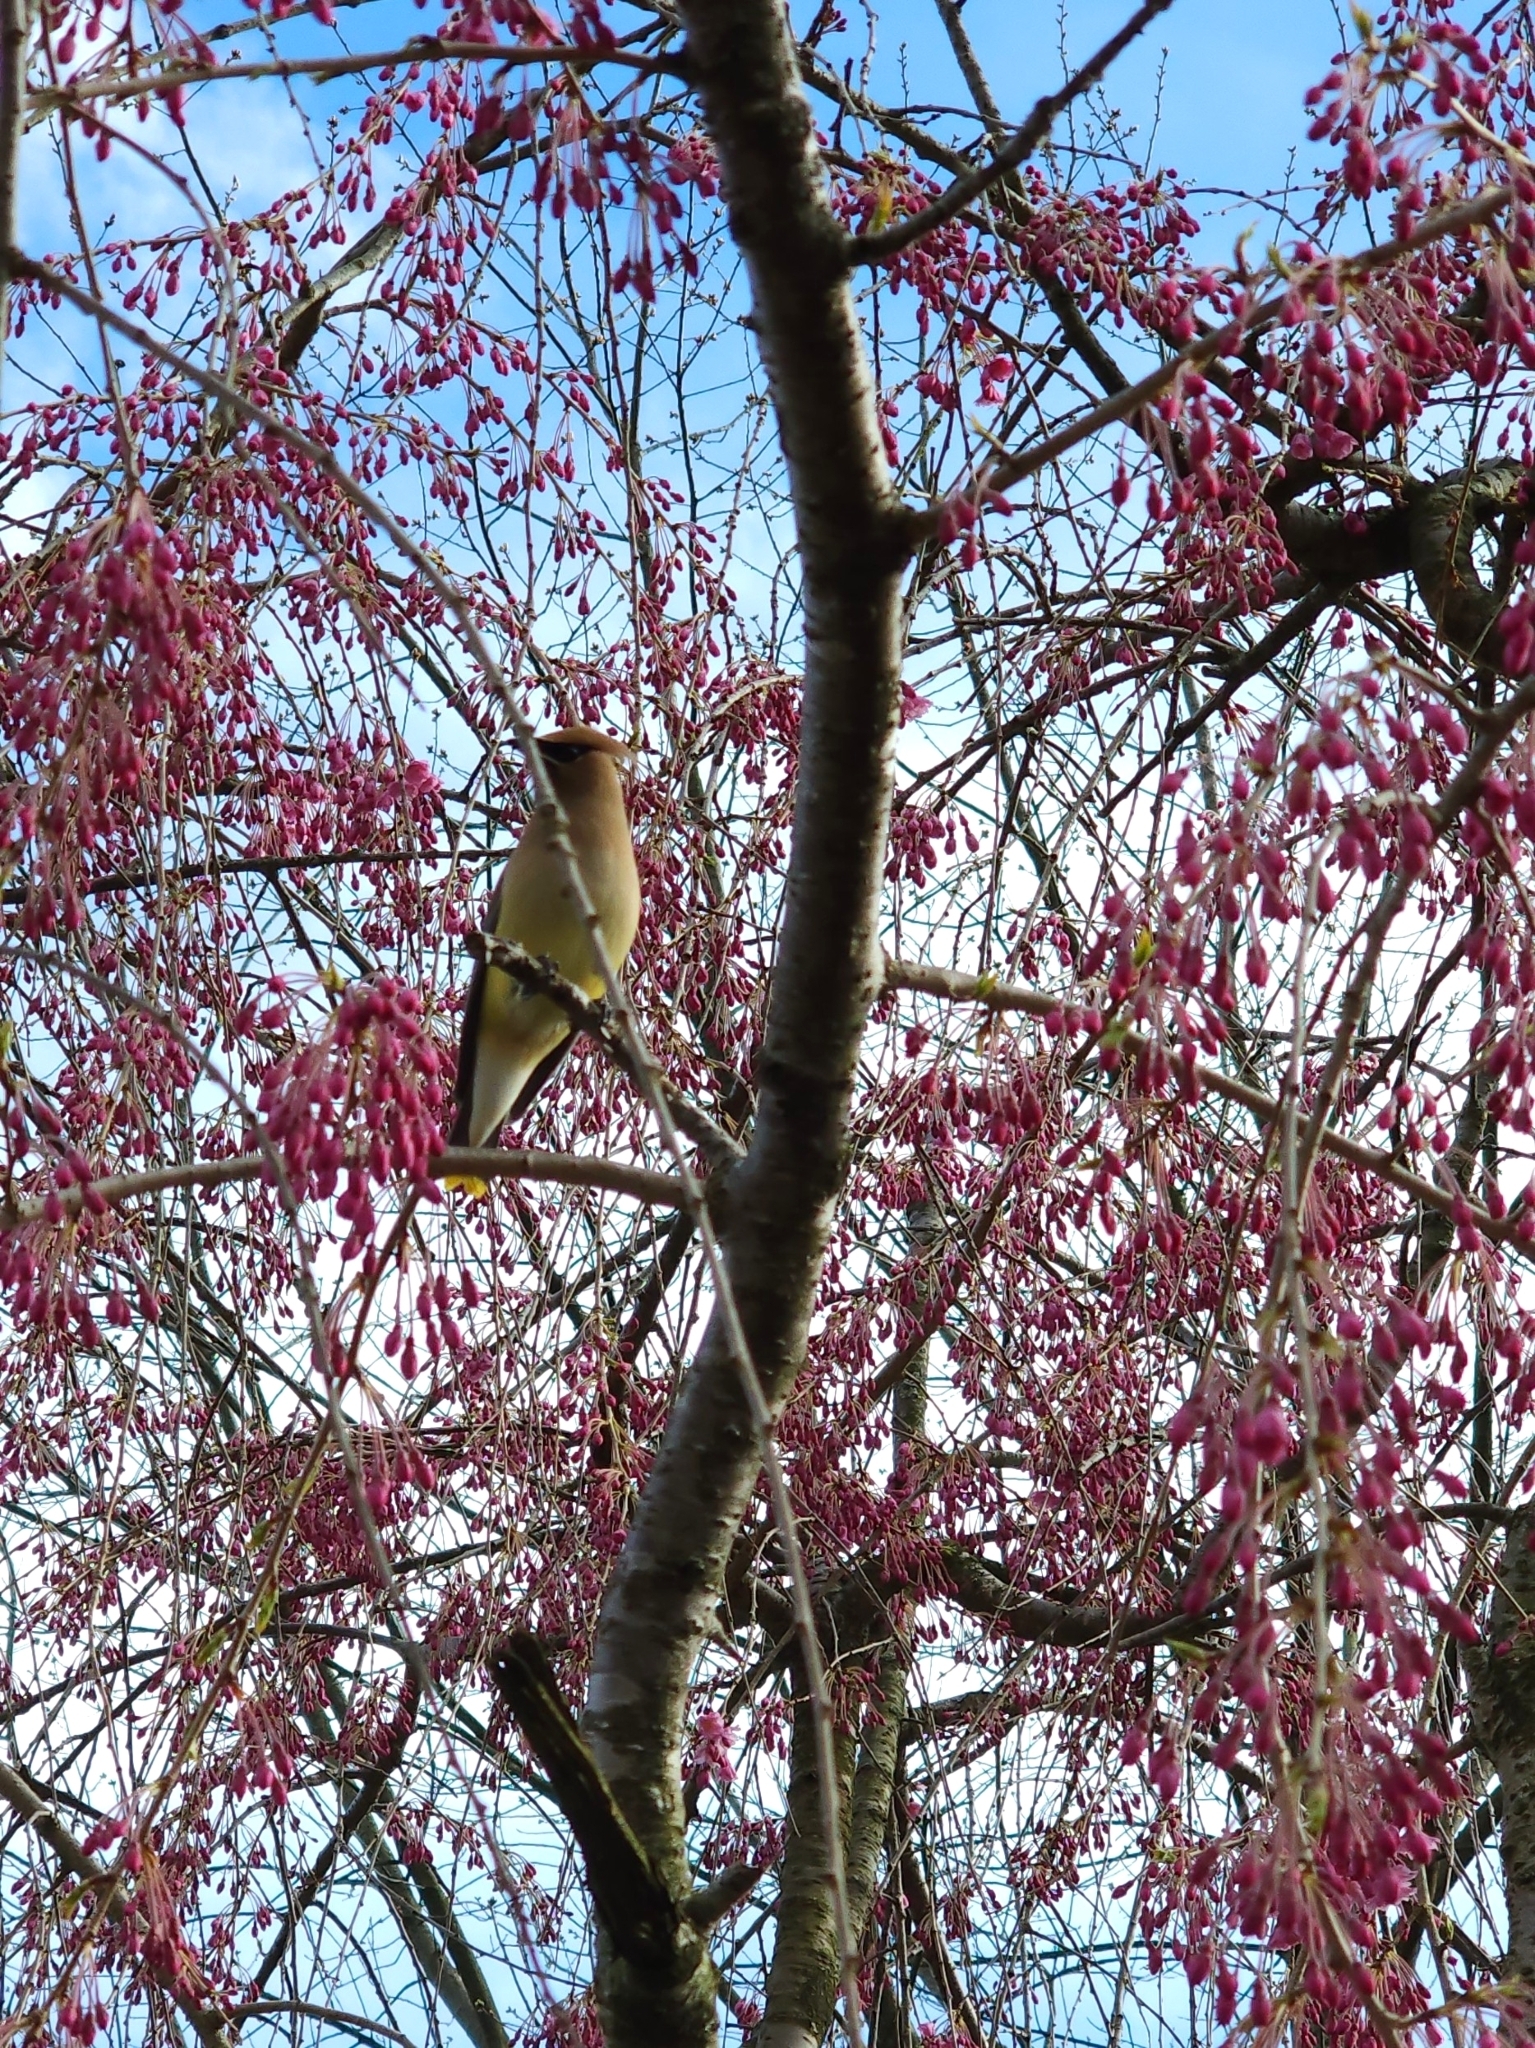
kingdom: Animalia
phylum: Chordata
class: Aves
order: Passeriformes
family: Bombycillidae
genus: Bombycilla
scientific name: Bombycilla cedrorum
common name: Cedar waxwing
